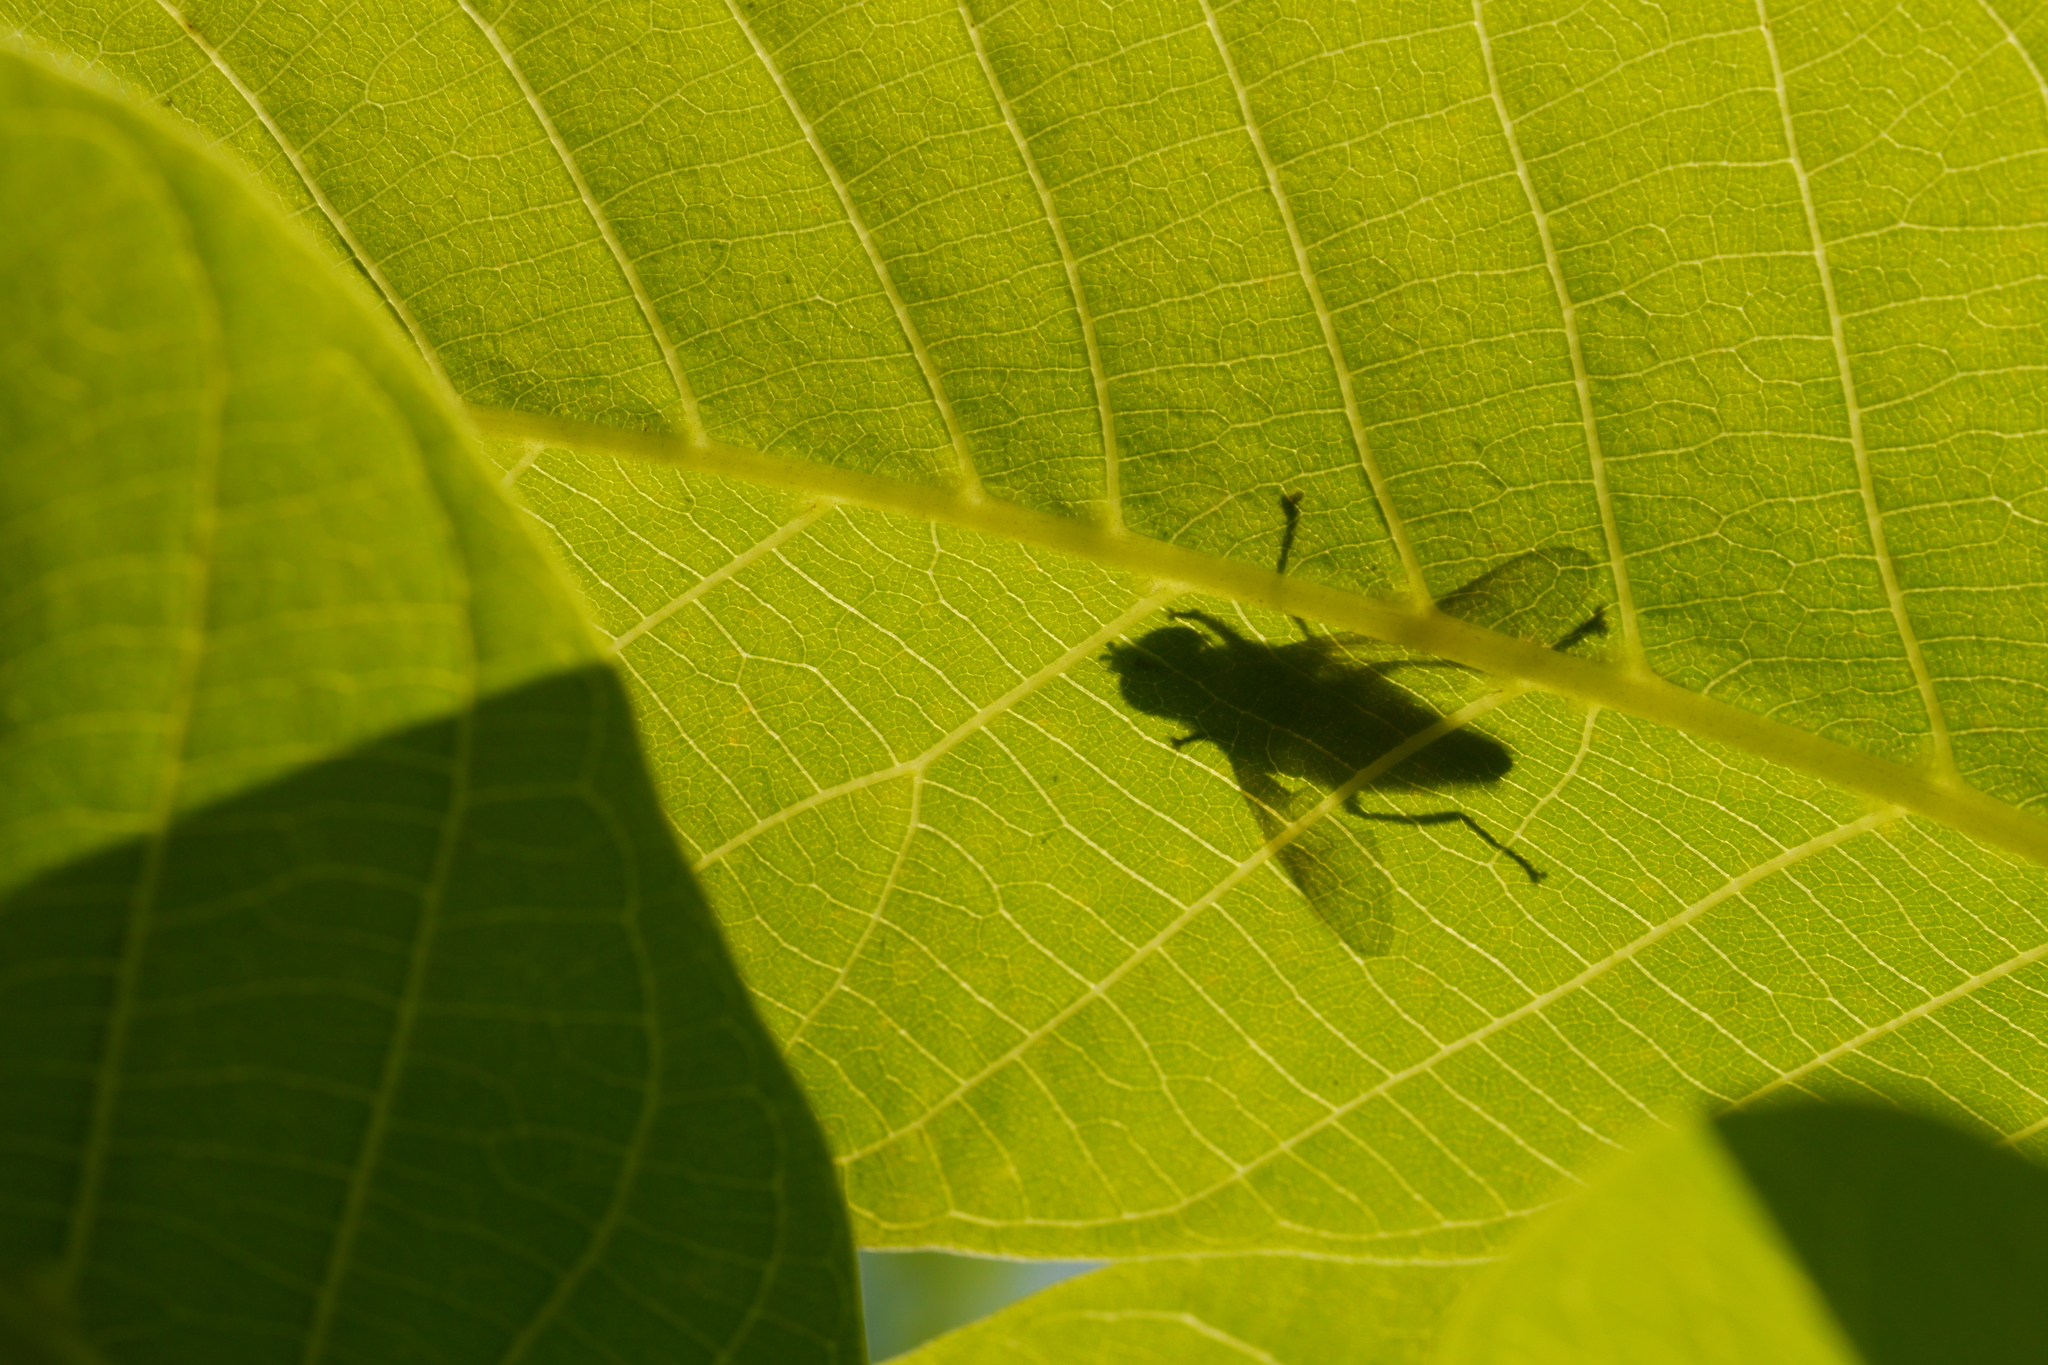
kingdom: Animalia
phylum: Arthropoda
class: Insecta
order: Diptera
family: Syrphidae
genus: Myathropa
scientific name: Myathropa florea
